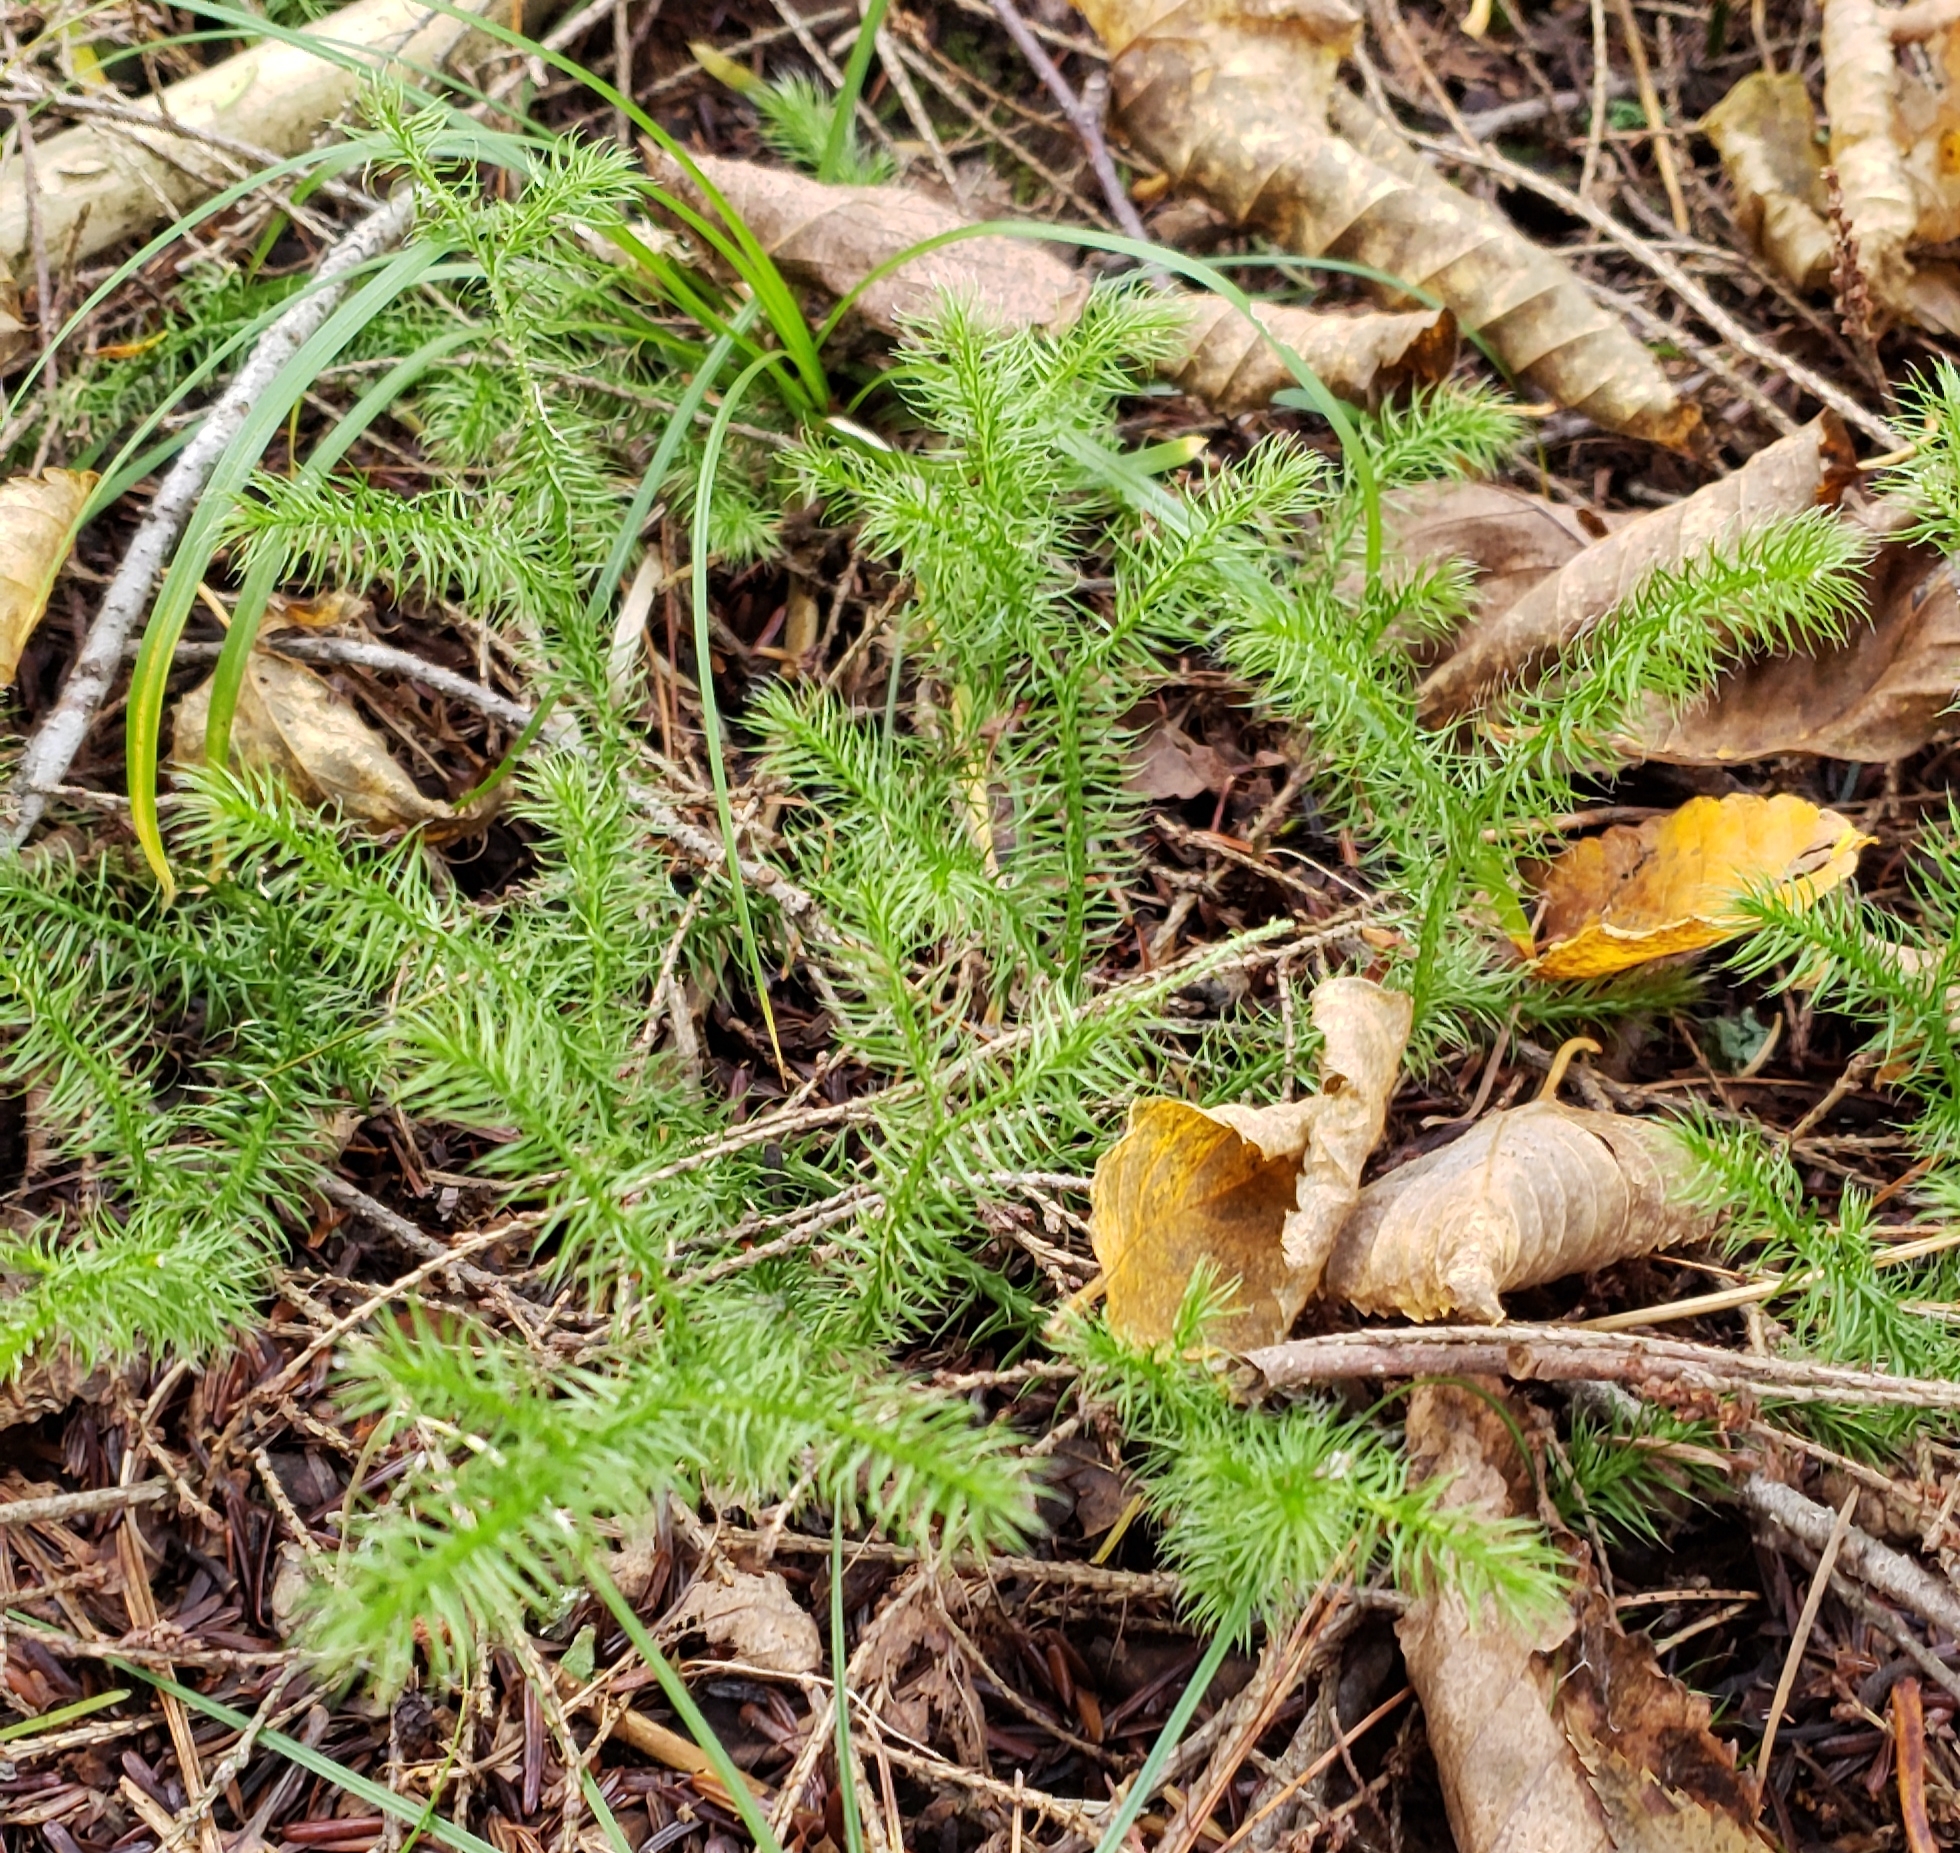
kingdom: Plantae
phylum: Tracheophyta
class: Lycopodiopsida
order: Lycopodiales
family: Lycopodiaceae
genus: Lycopodium
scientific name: Lycopodium clavatum
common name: Stag's-horn clubmoss
